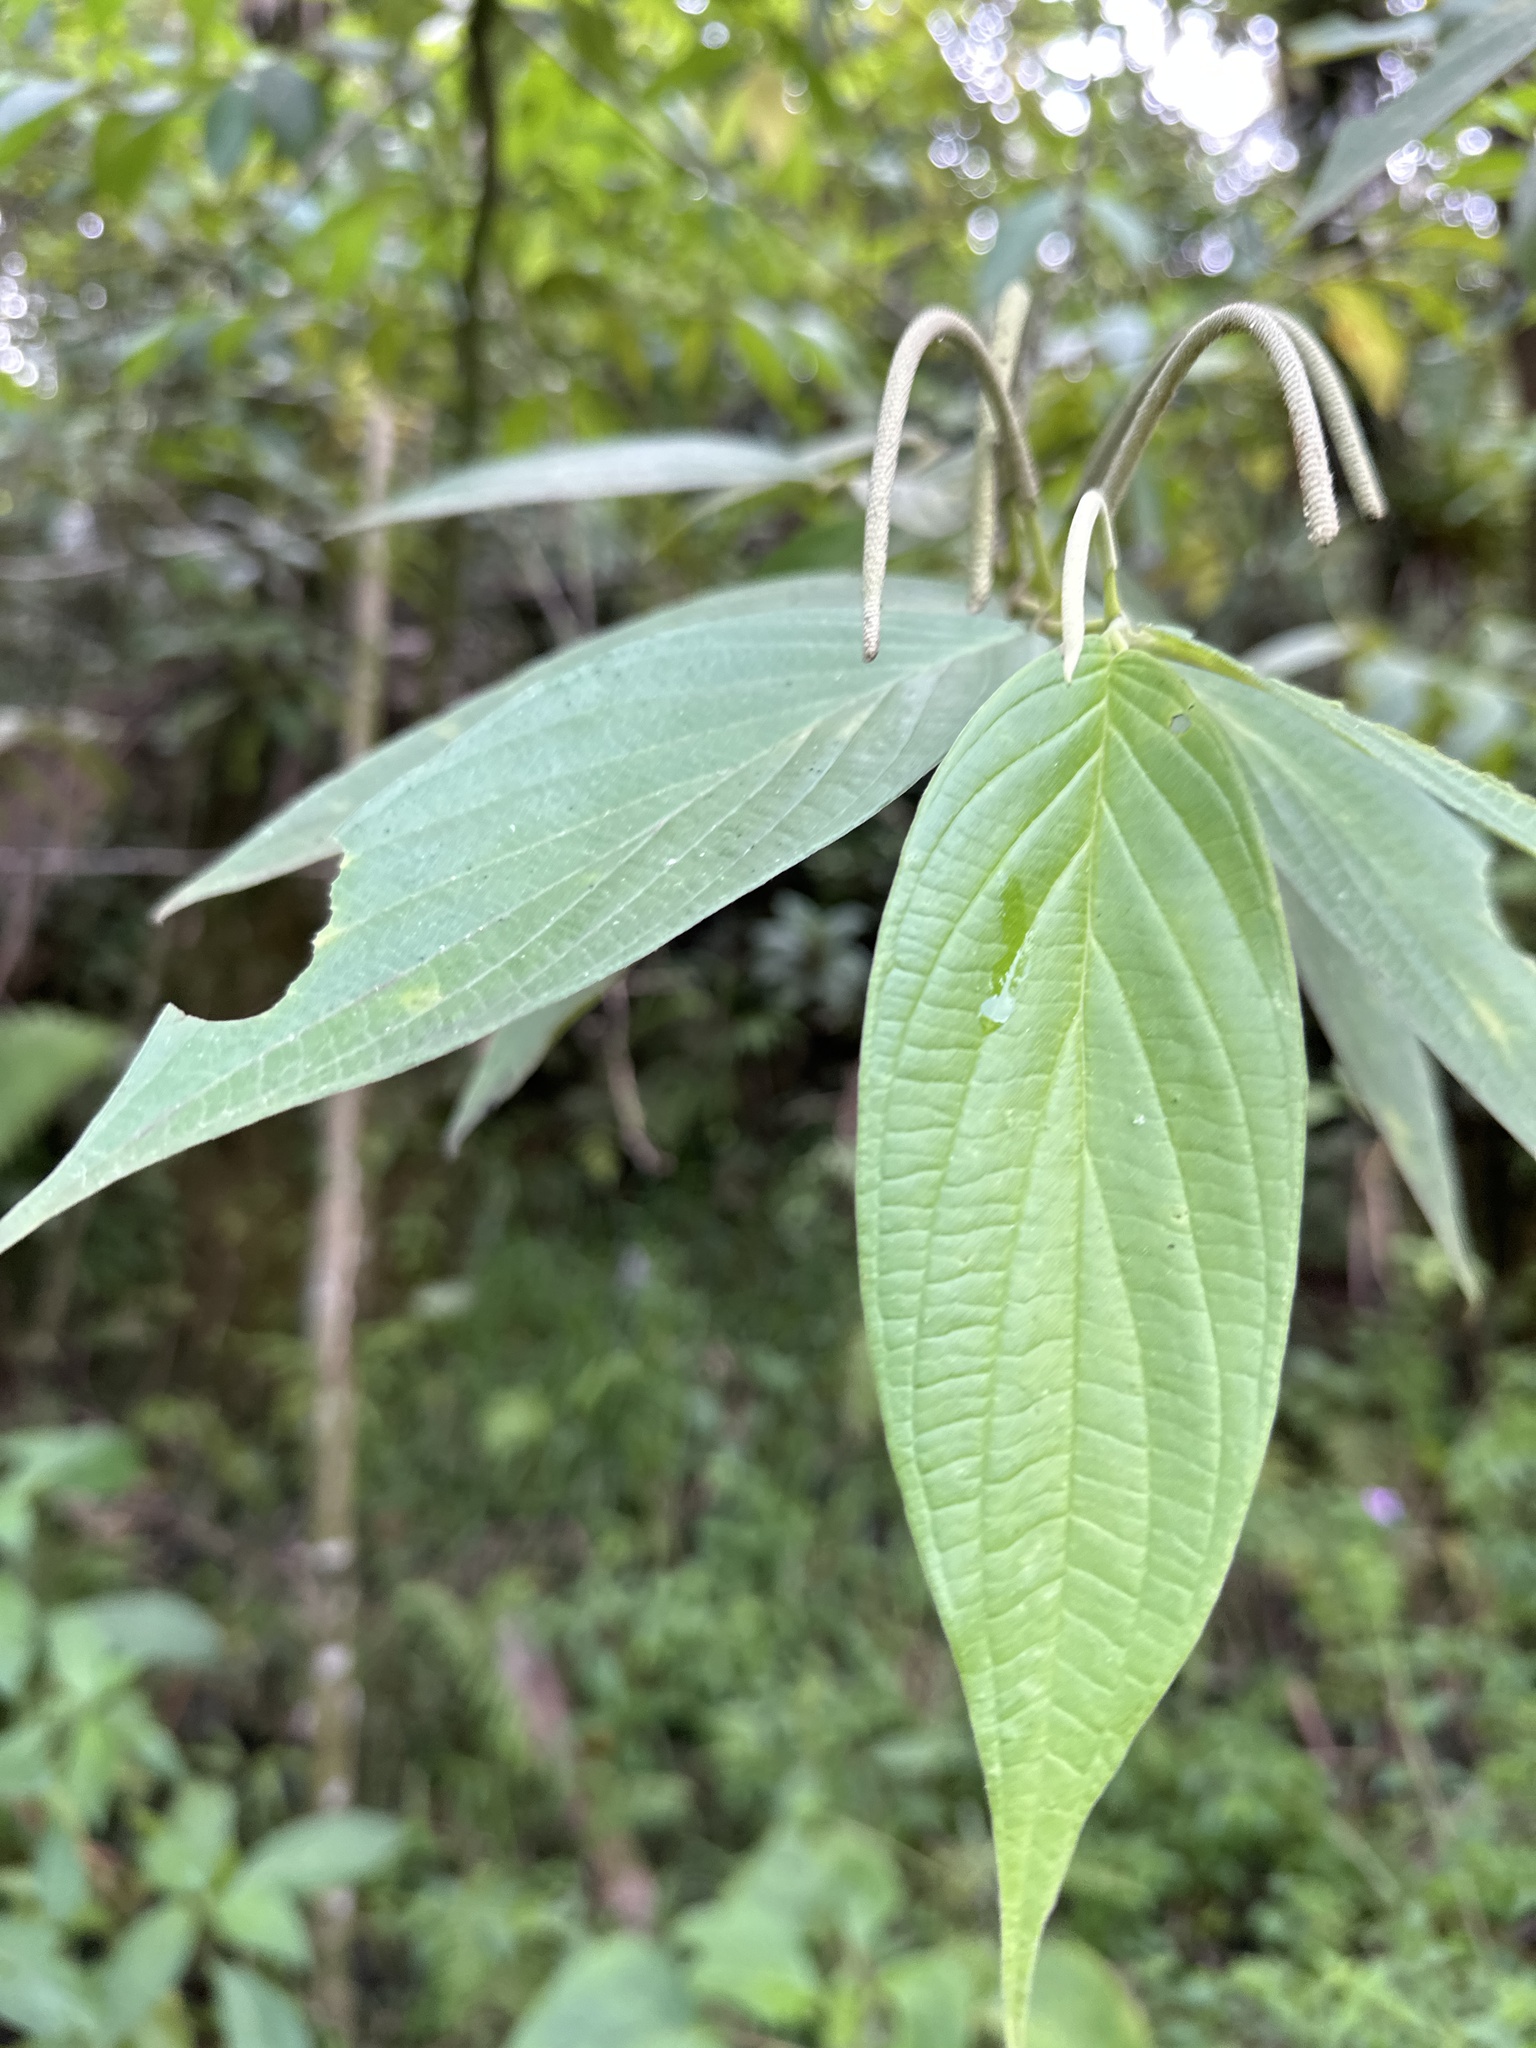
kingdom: Plantae
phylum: Tracheophyta
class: Magnoliopsida
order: Piperales
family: Piperaceae
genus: Piper
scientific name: Piper aduncum
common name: Spiked pepper
